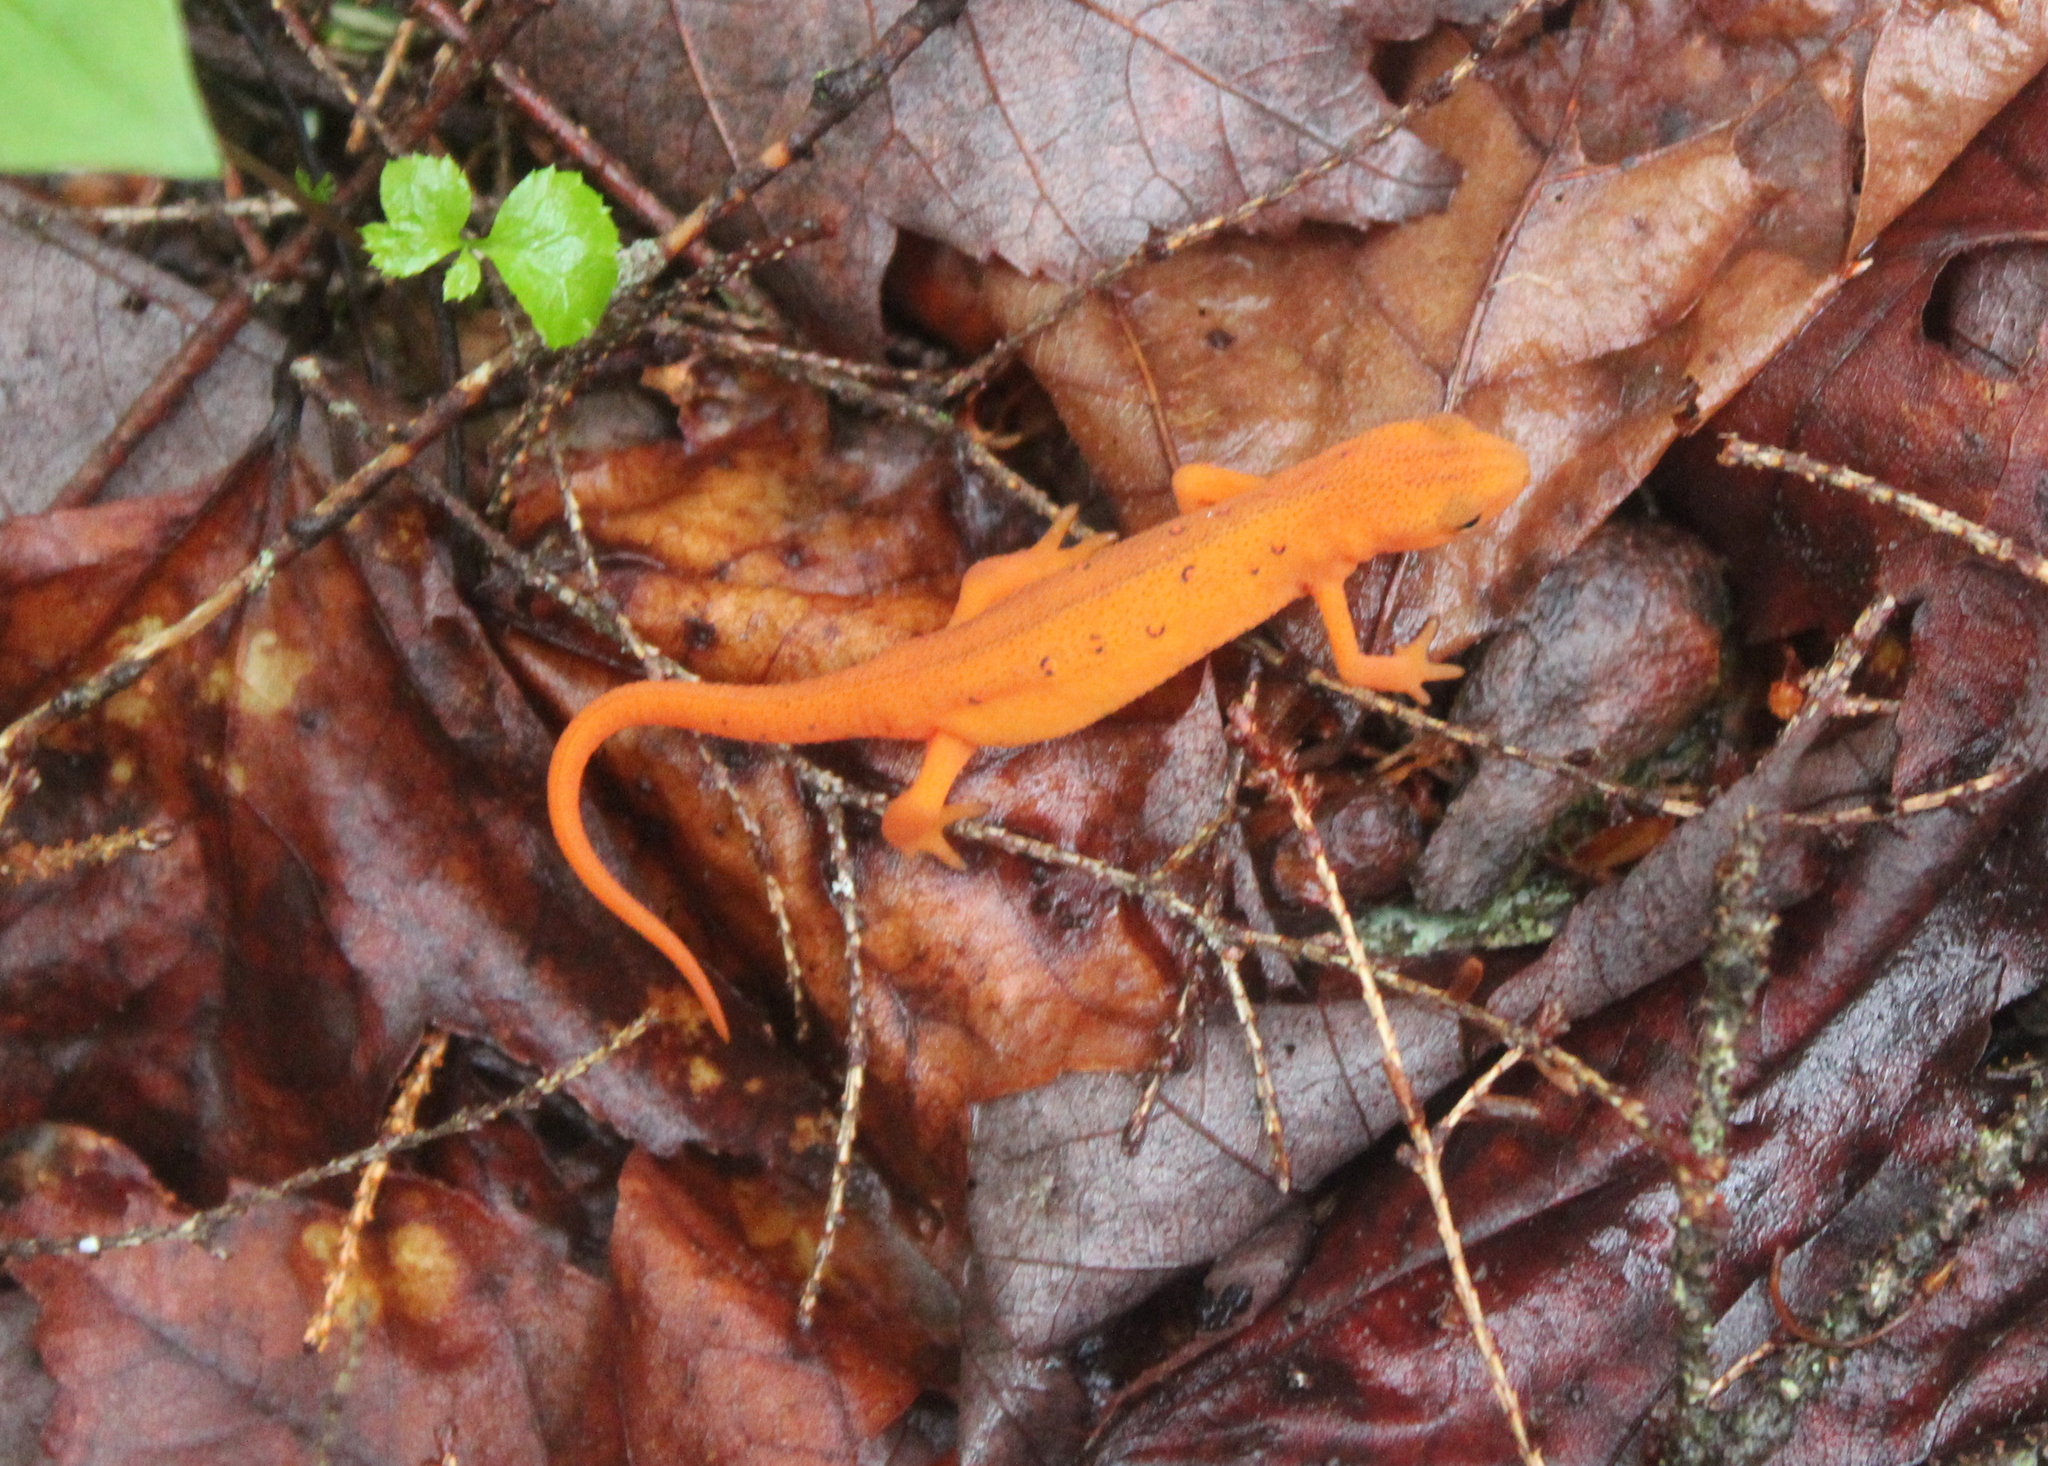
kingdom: Animalia
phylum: Chordata
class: Amphibia
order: Caudata
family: Salamandridae
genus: Notophthalmus
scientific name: Notophthalmus viridescens
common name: Eastern newt
